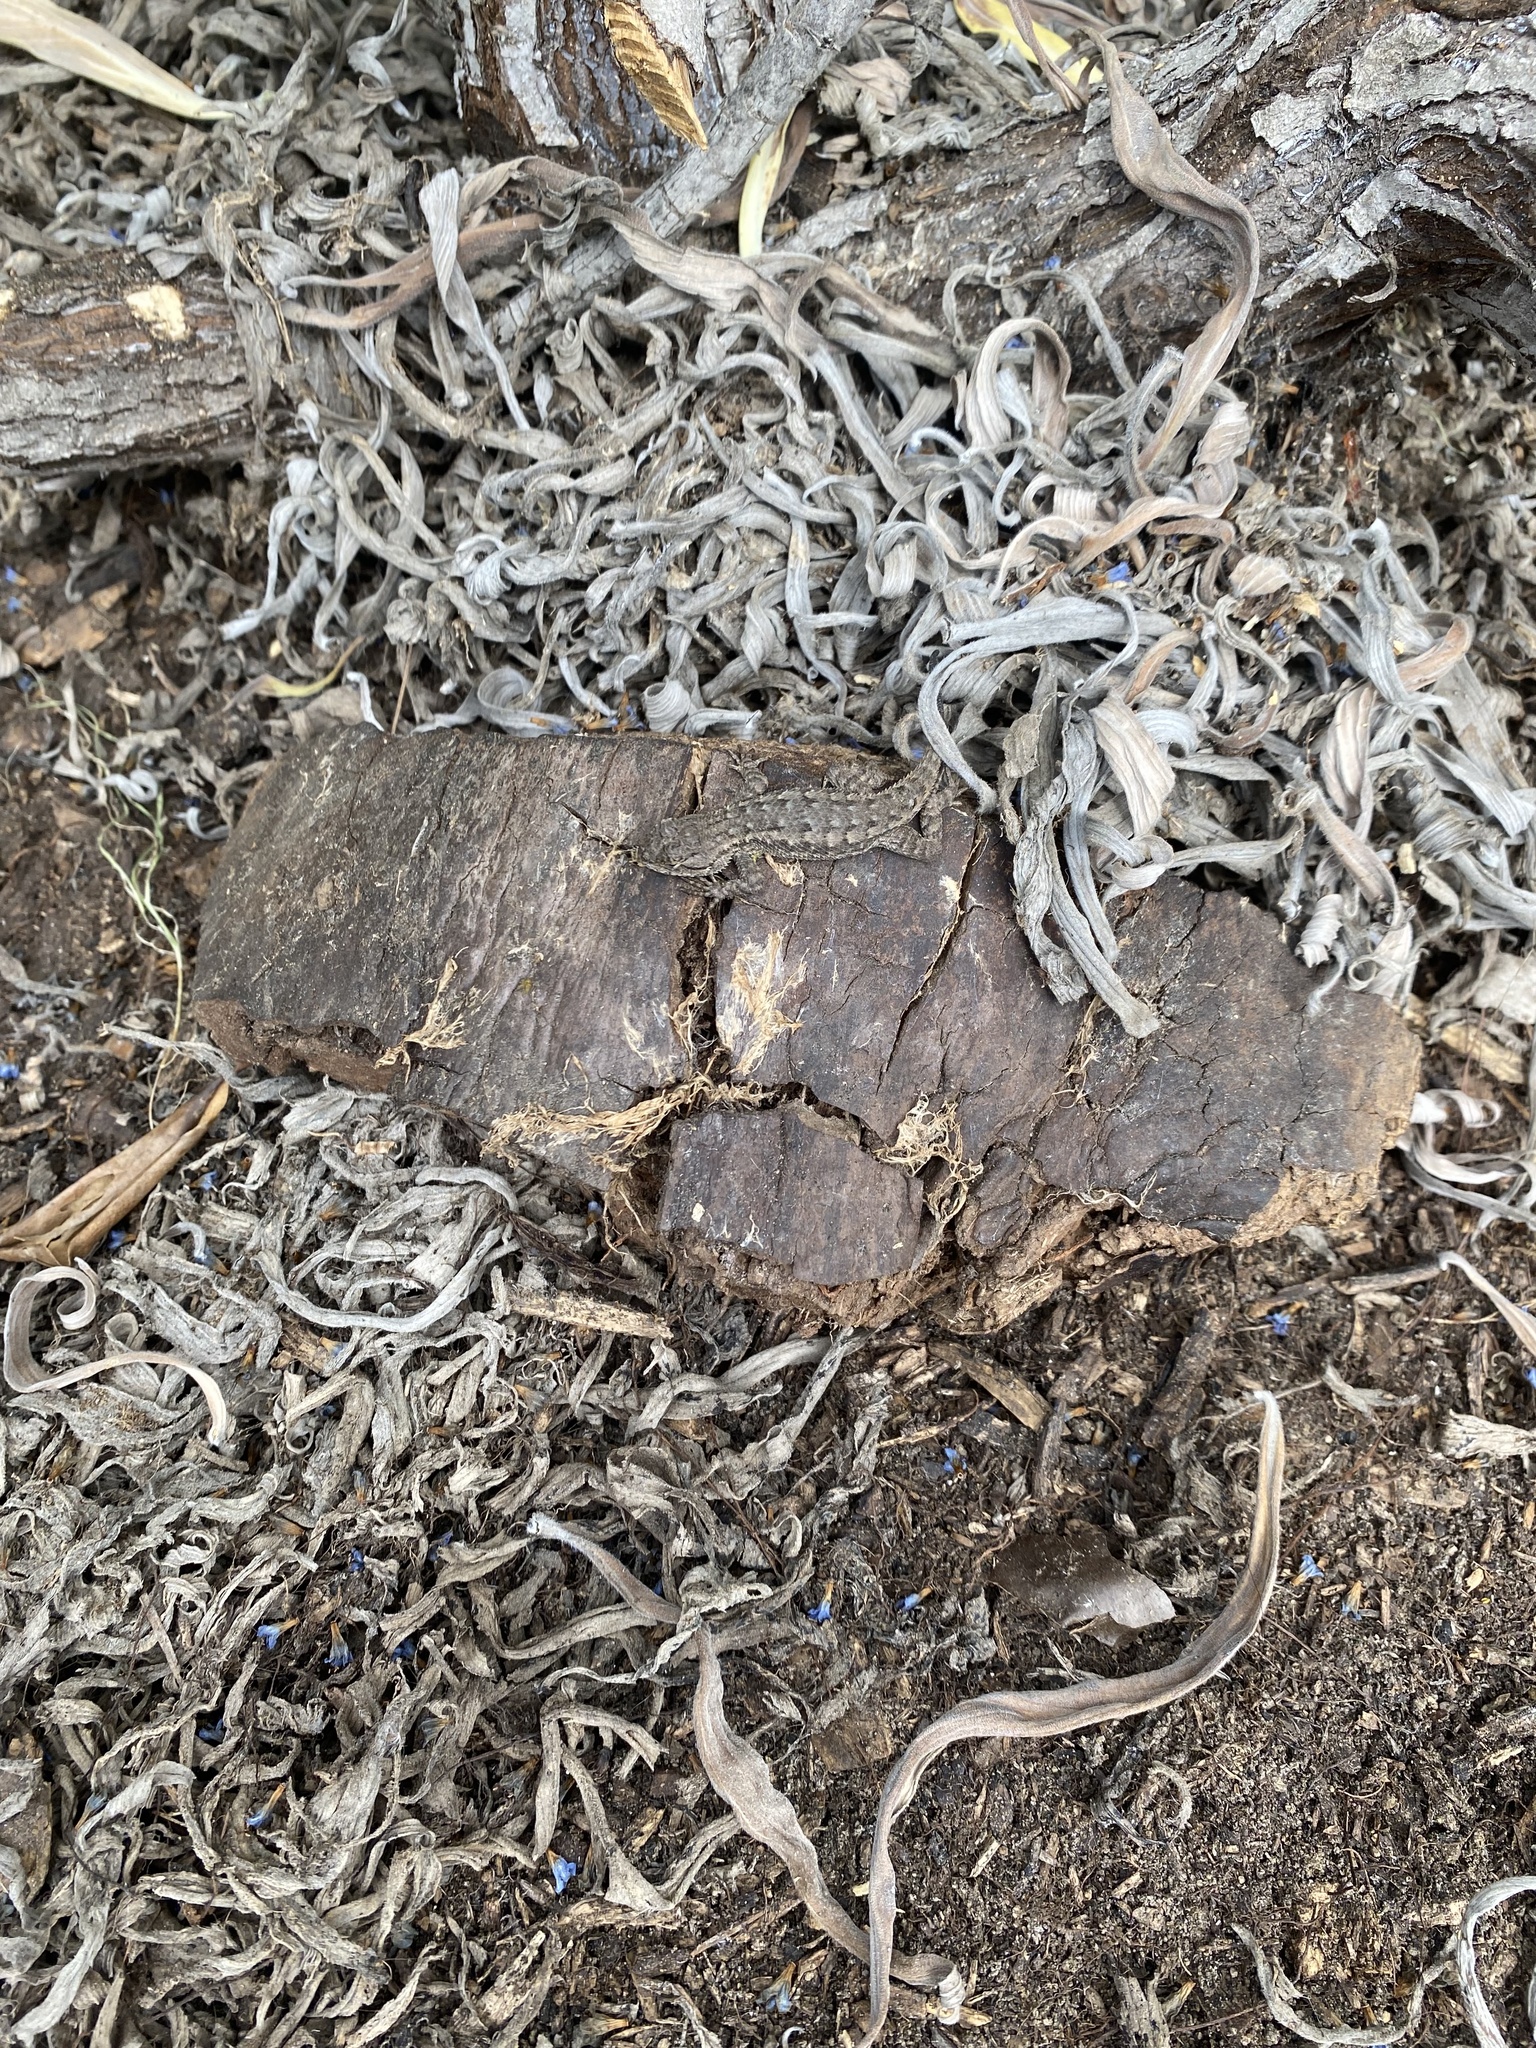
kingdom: Animalia
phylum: Chordata
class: Squamata
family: Phrynosomatidae
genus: Sceloporus
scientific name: Sceloporus occidentalis
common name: Western fence lizard
